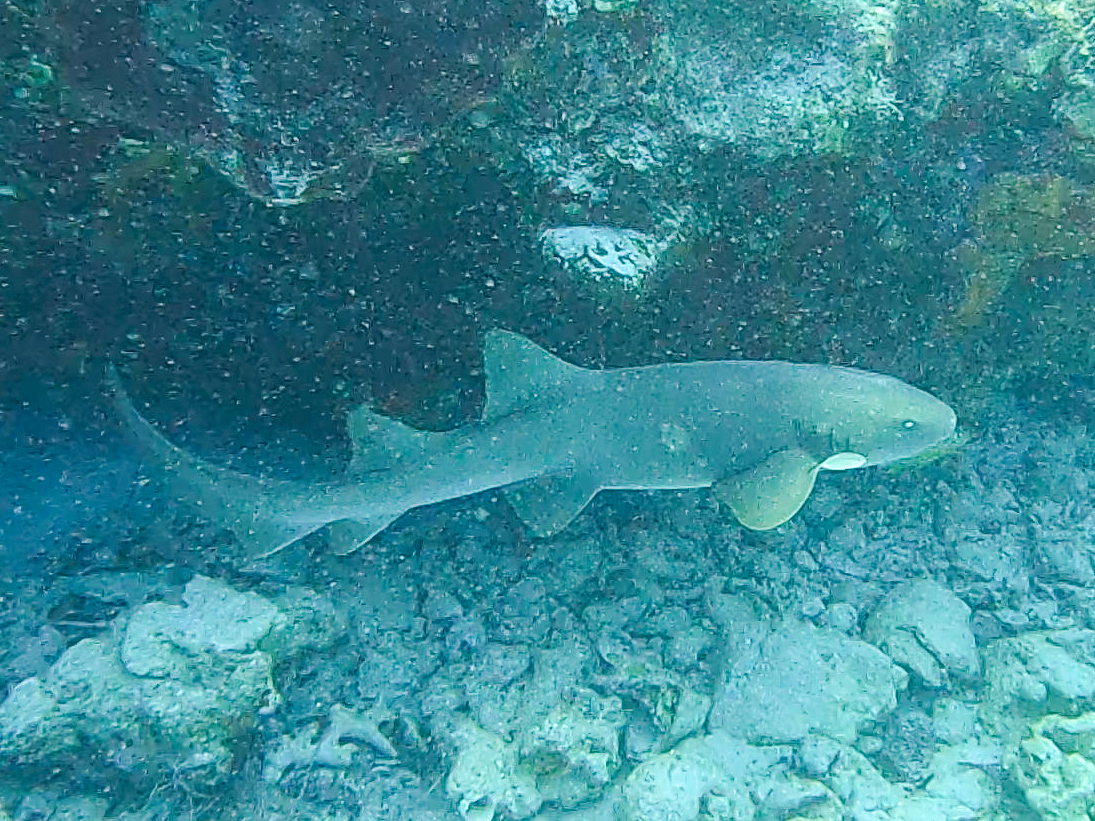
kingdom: Animalia
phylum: Chordata
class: Elasmobranchii
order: Orectolobiformes
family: Ginglymostomatidae
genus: Ginglymostoma
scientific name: Ginglymostoma cirratum
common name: Nurse shark
